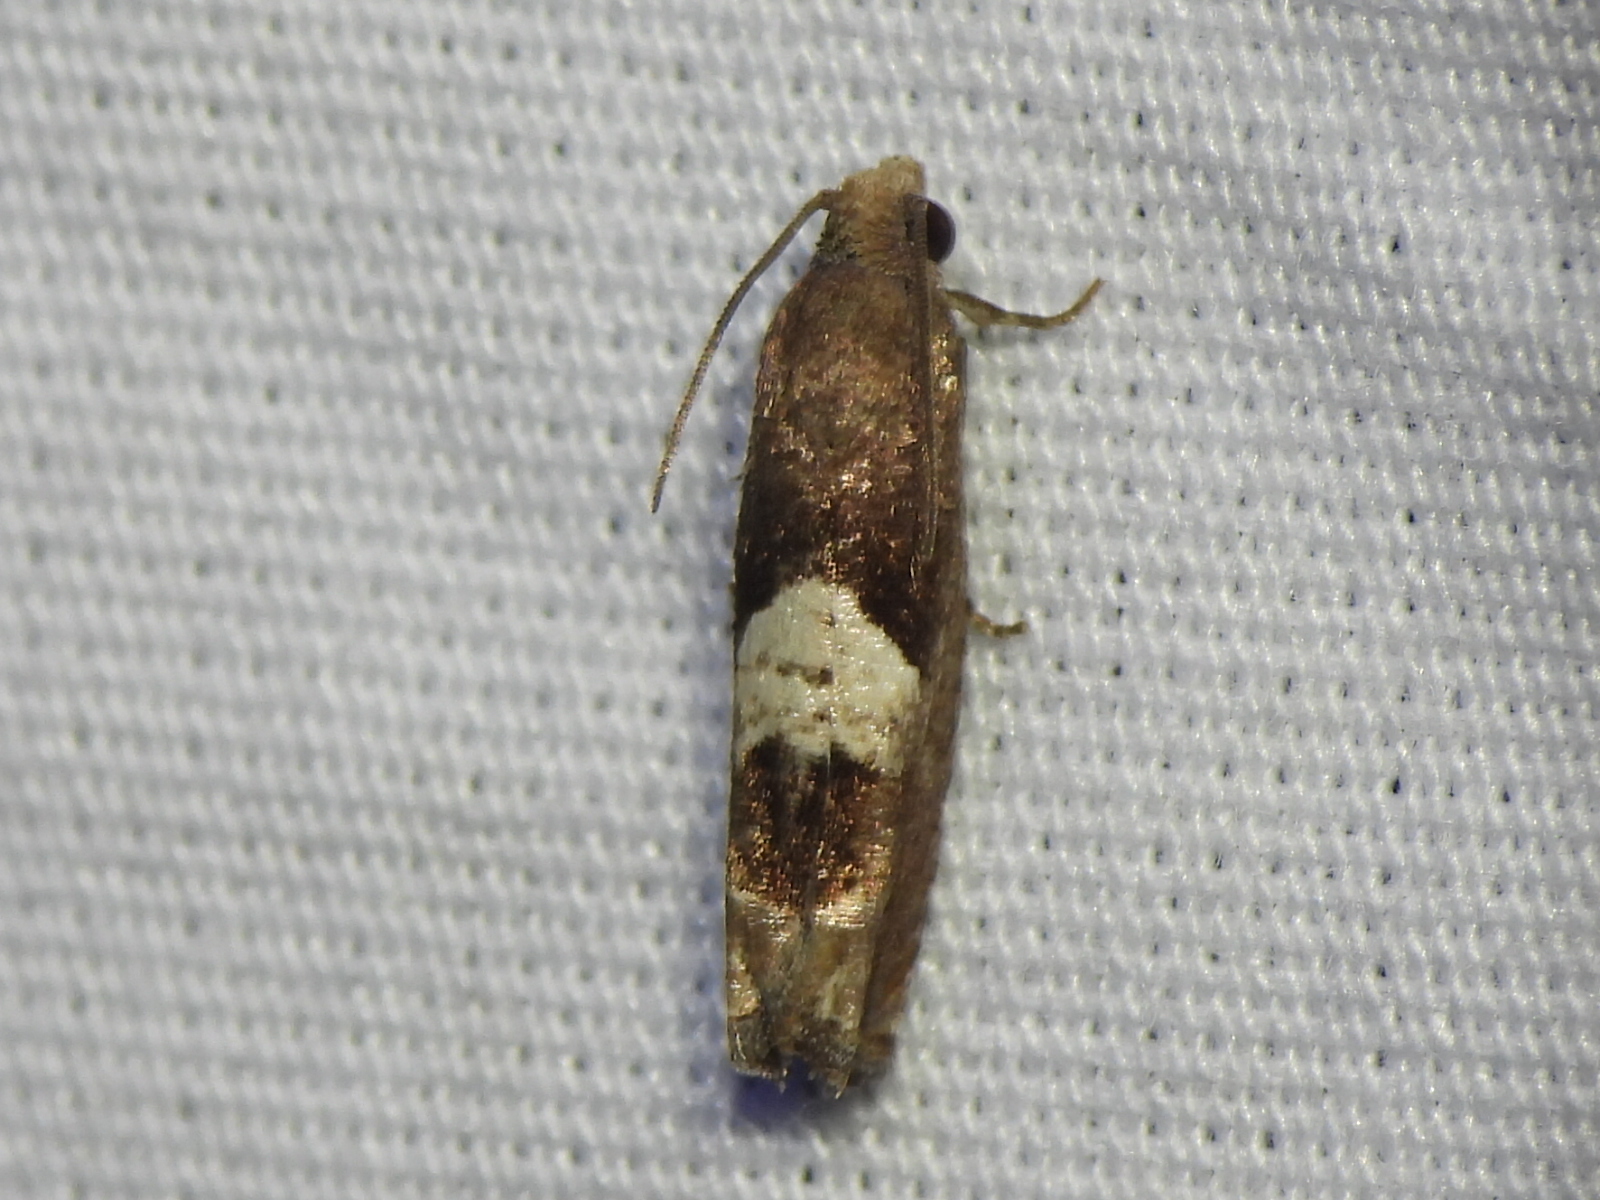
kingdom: Animalia
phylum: Arthropoda
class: Insecta
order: Lepidoptera
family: Tortricidae
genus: Epiblema
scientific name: Epiblema boxcana
